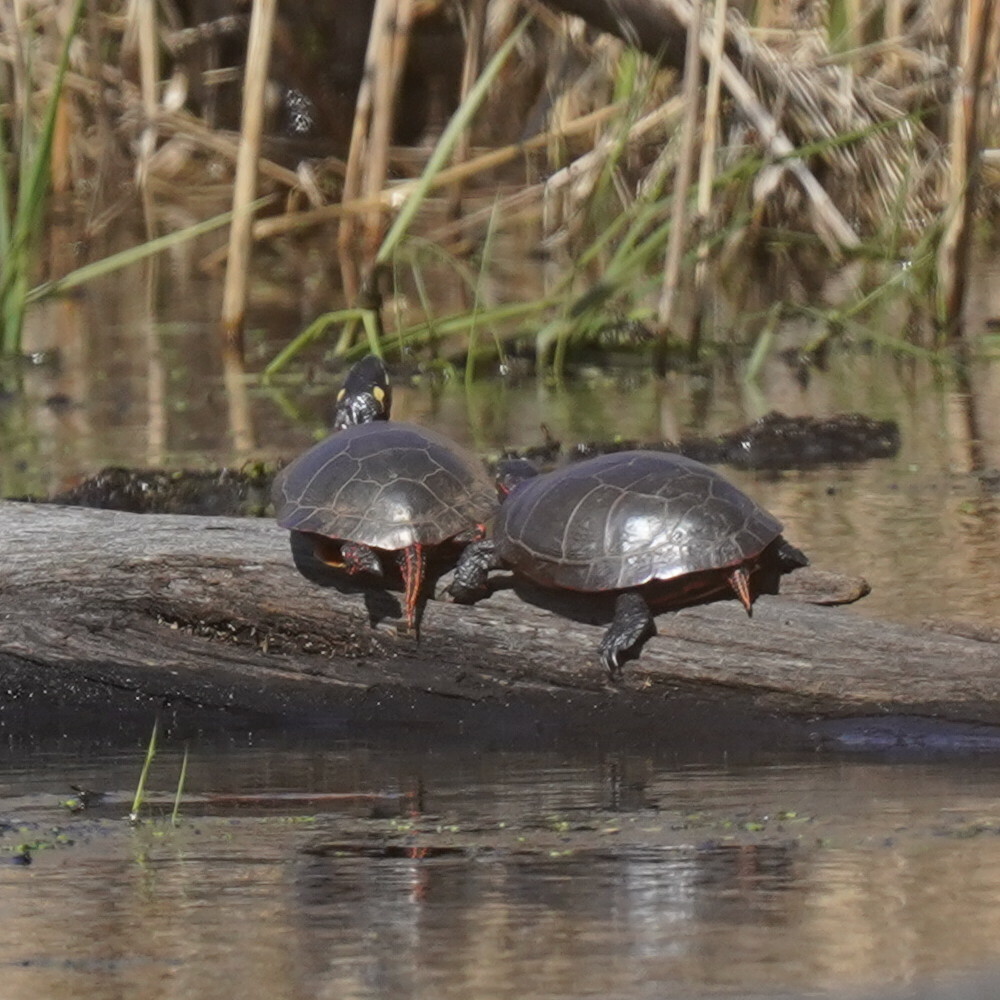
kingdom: Animalia
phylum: Chordata
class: Testudines
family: Emydidae
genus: Chrysemys
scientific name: Chrysemys picta
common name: Painted turtle
